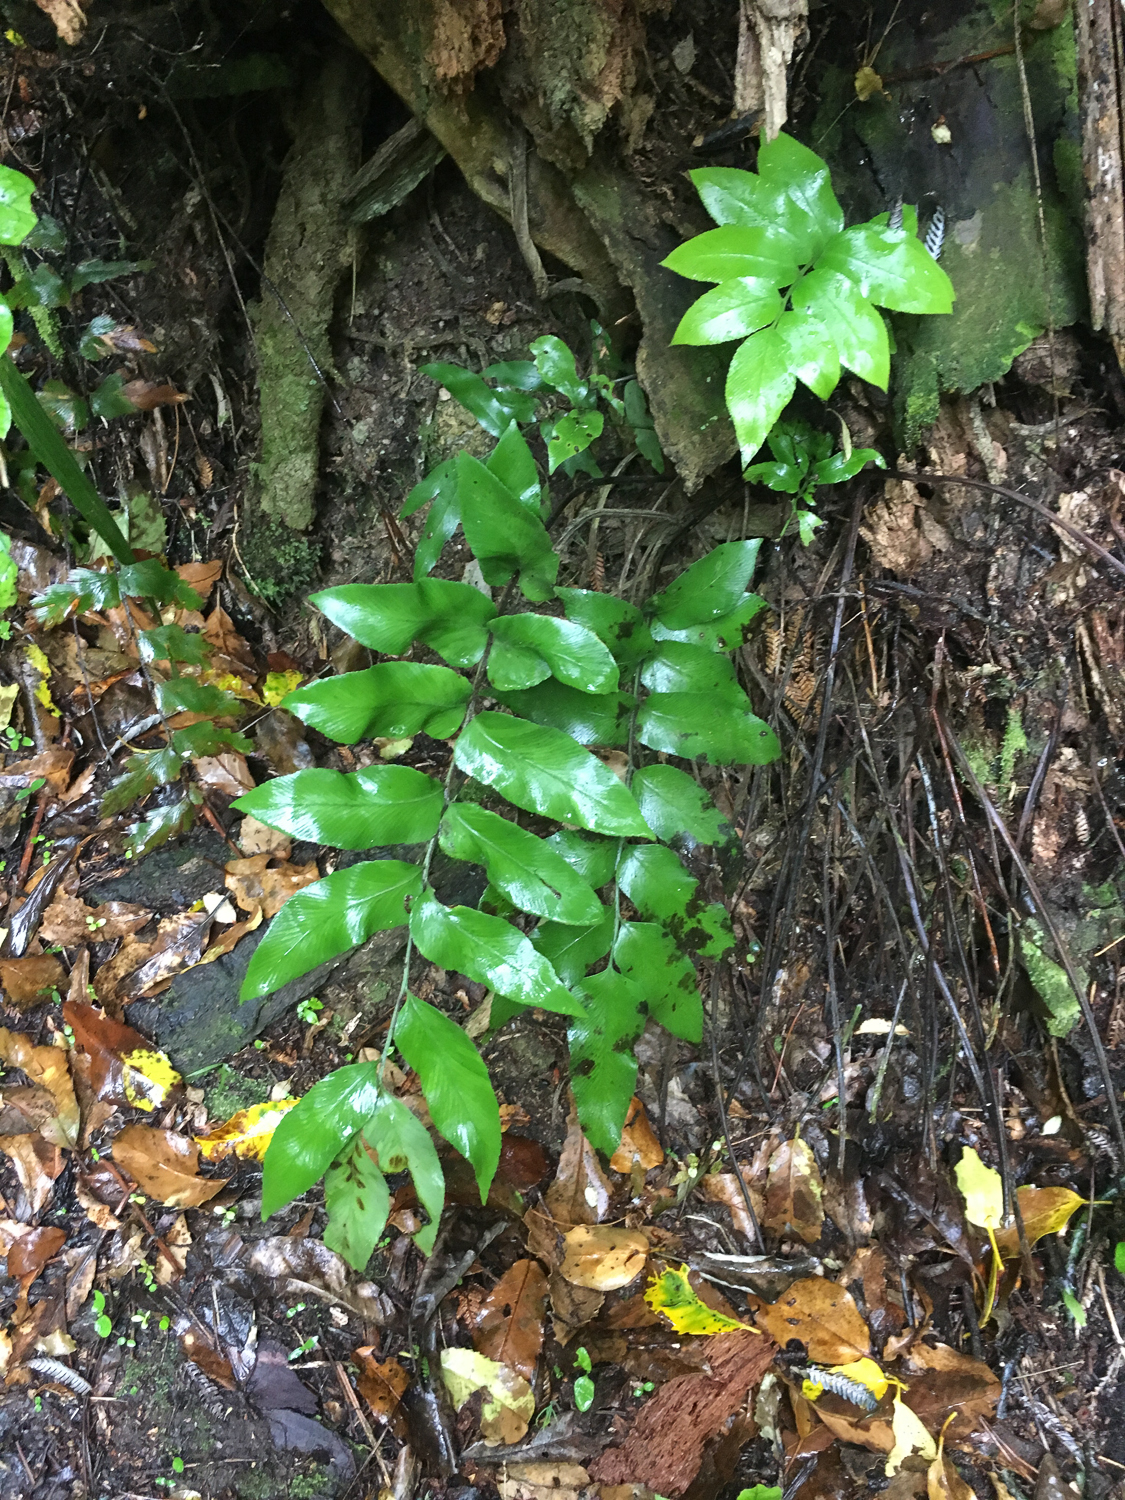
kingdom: Plantae
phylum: Tracheophyta
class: Polypodiopsida
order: Polypodiales
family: Aspleniaceae
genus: Asplenium
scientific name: Asplenium oblongifolium
